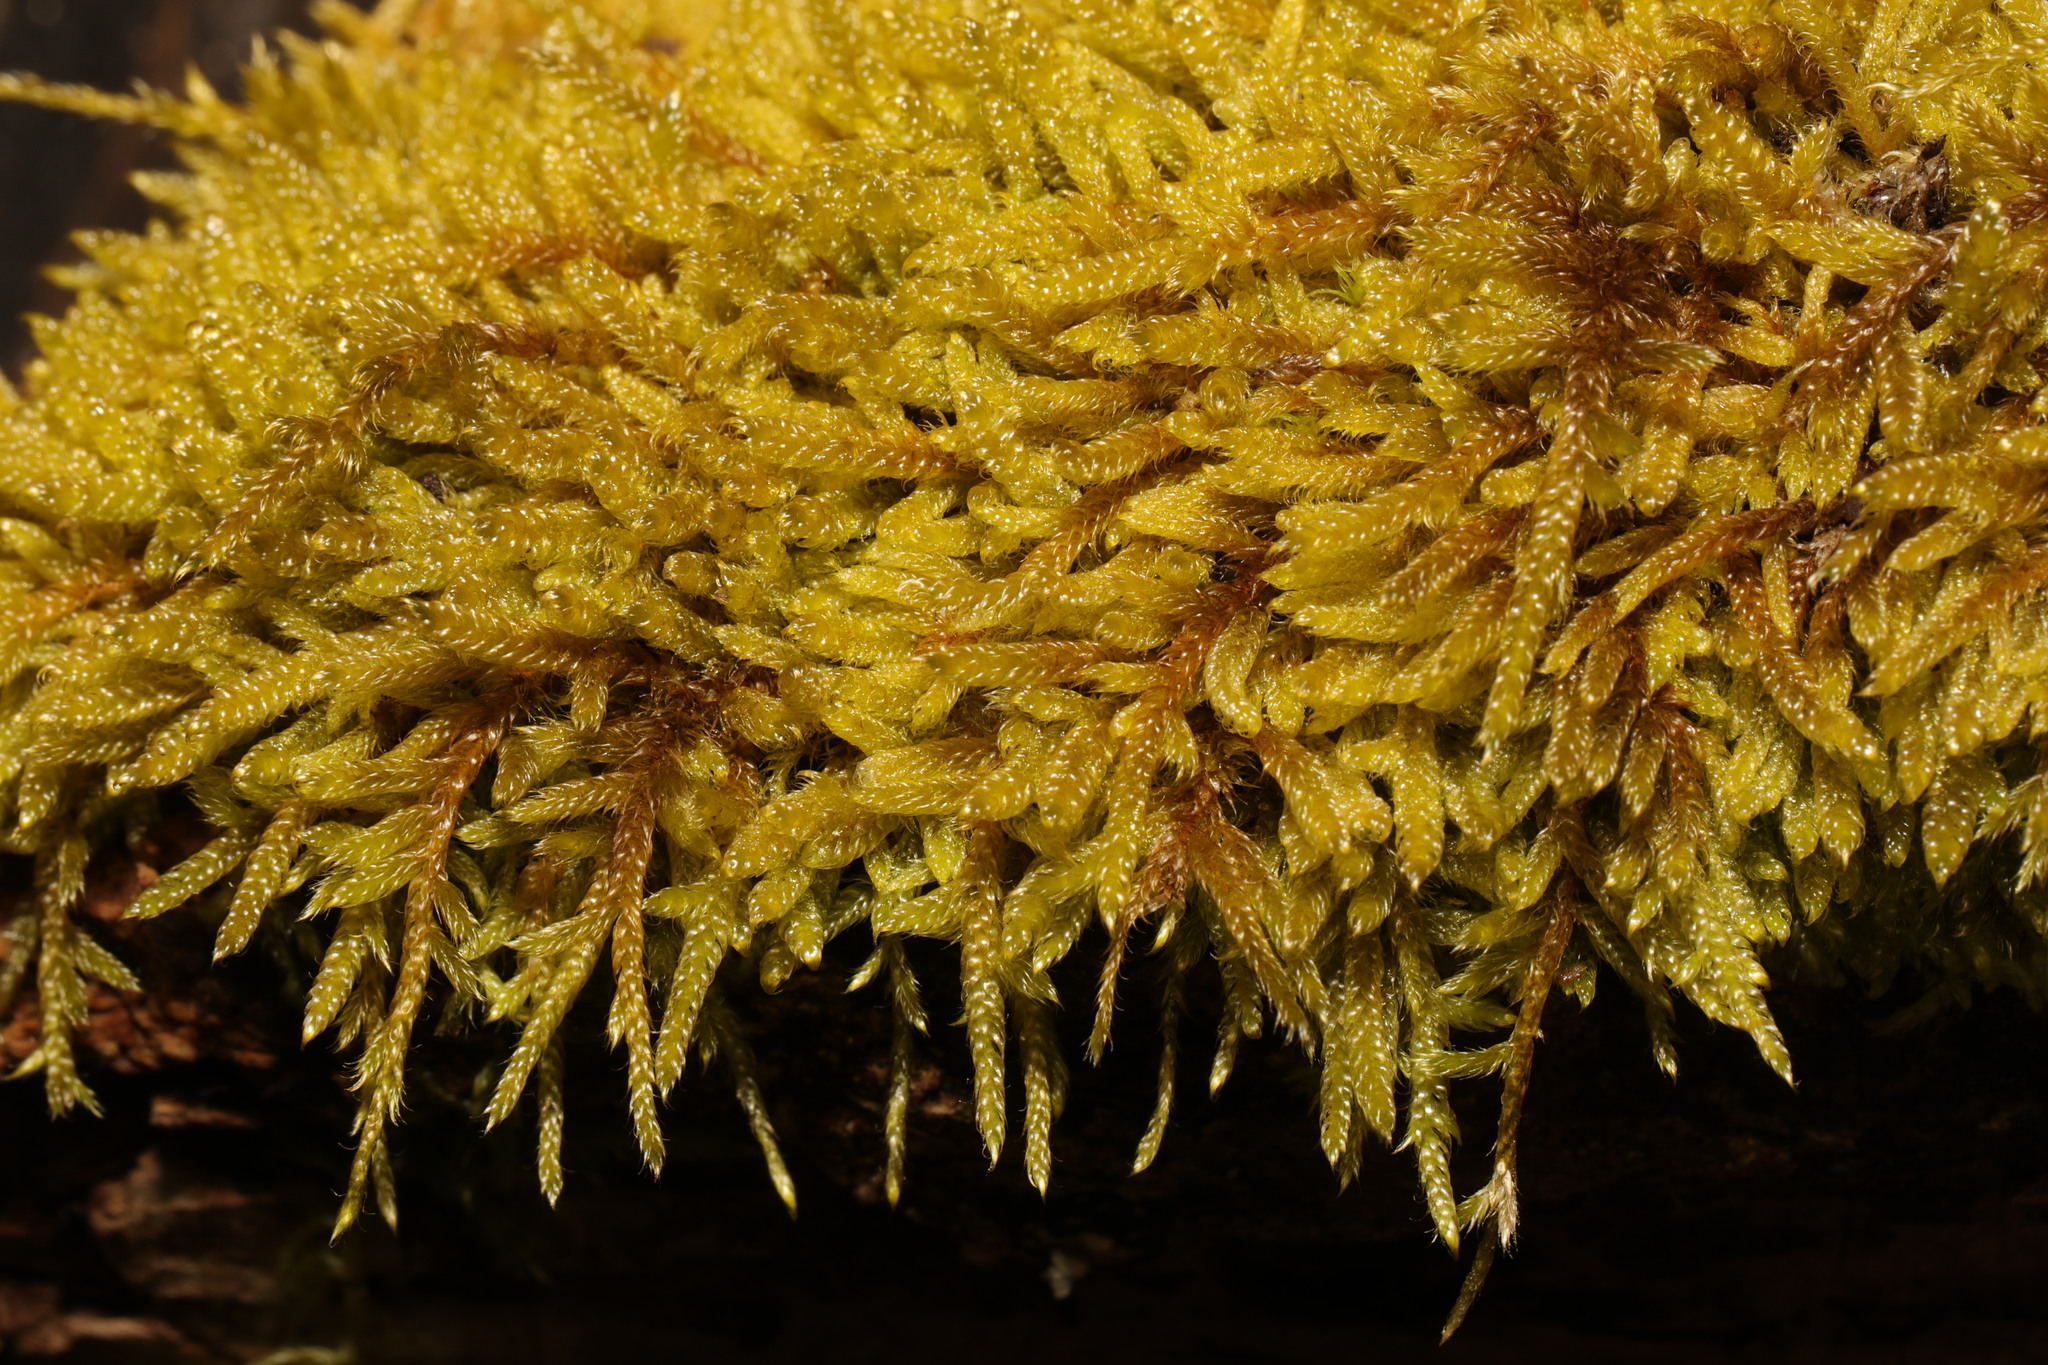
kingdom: Plantae
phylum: Bryophyta
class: Bryopsida
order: Hypnales
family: Hypnaceae
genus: Hypnum
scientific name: Hypnum cupressiforme
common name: Cypress-leaved plait-moss
